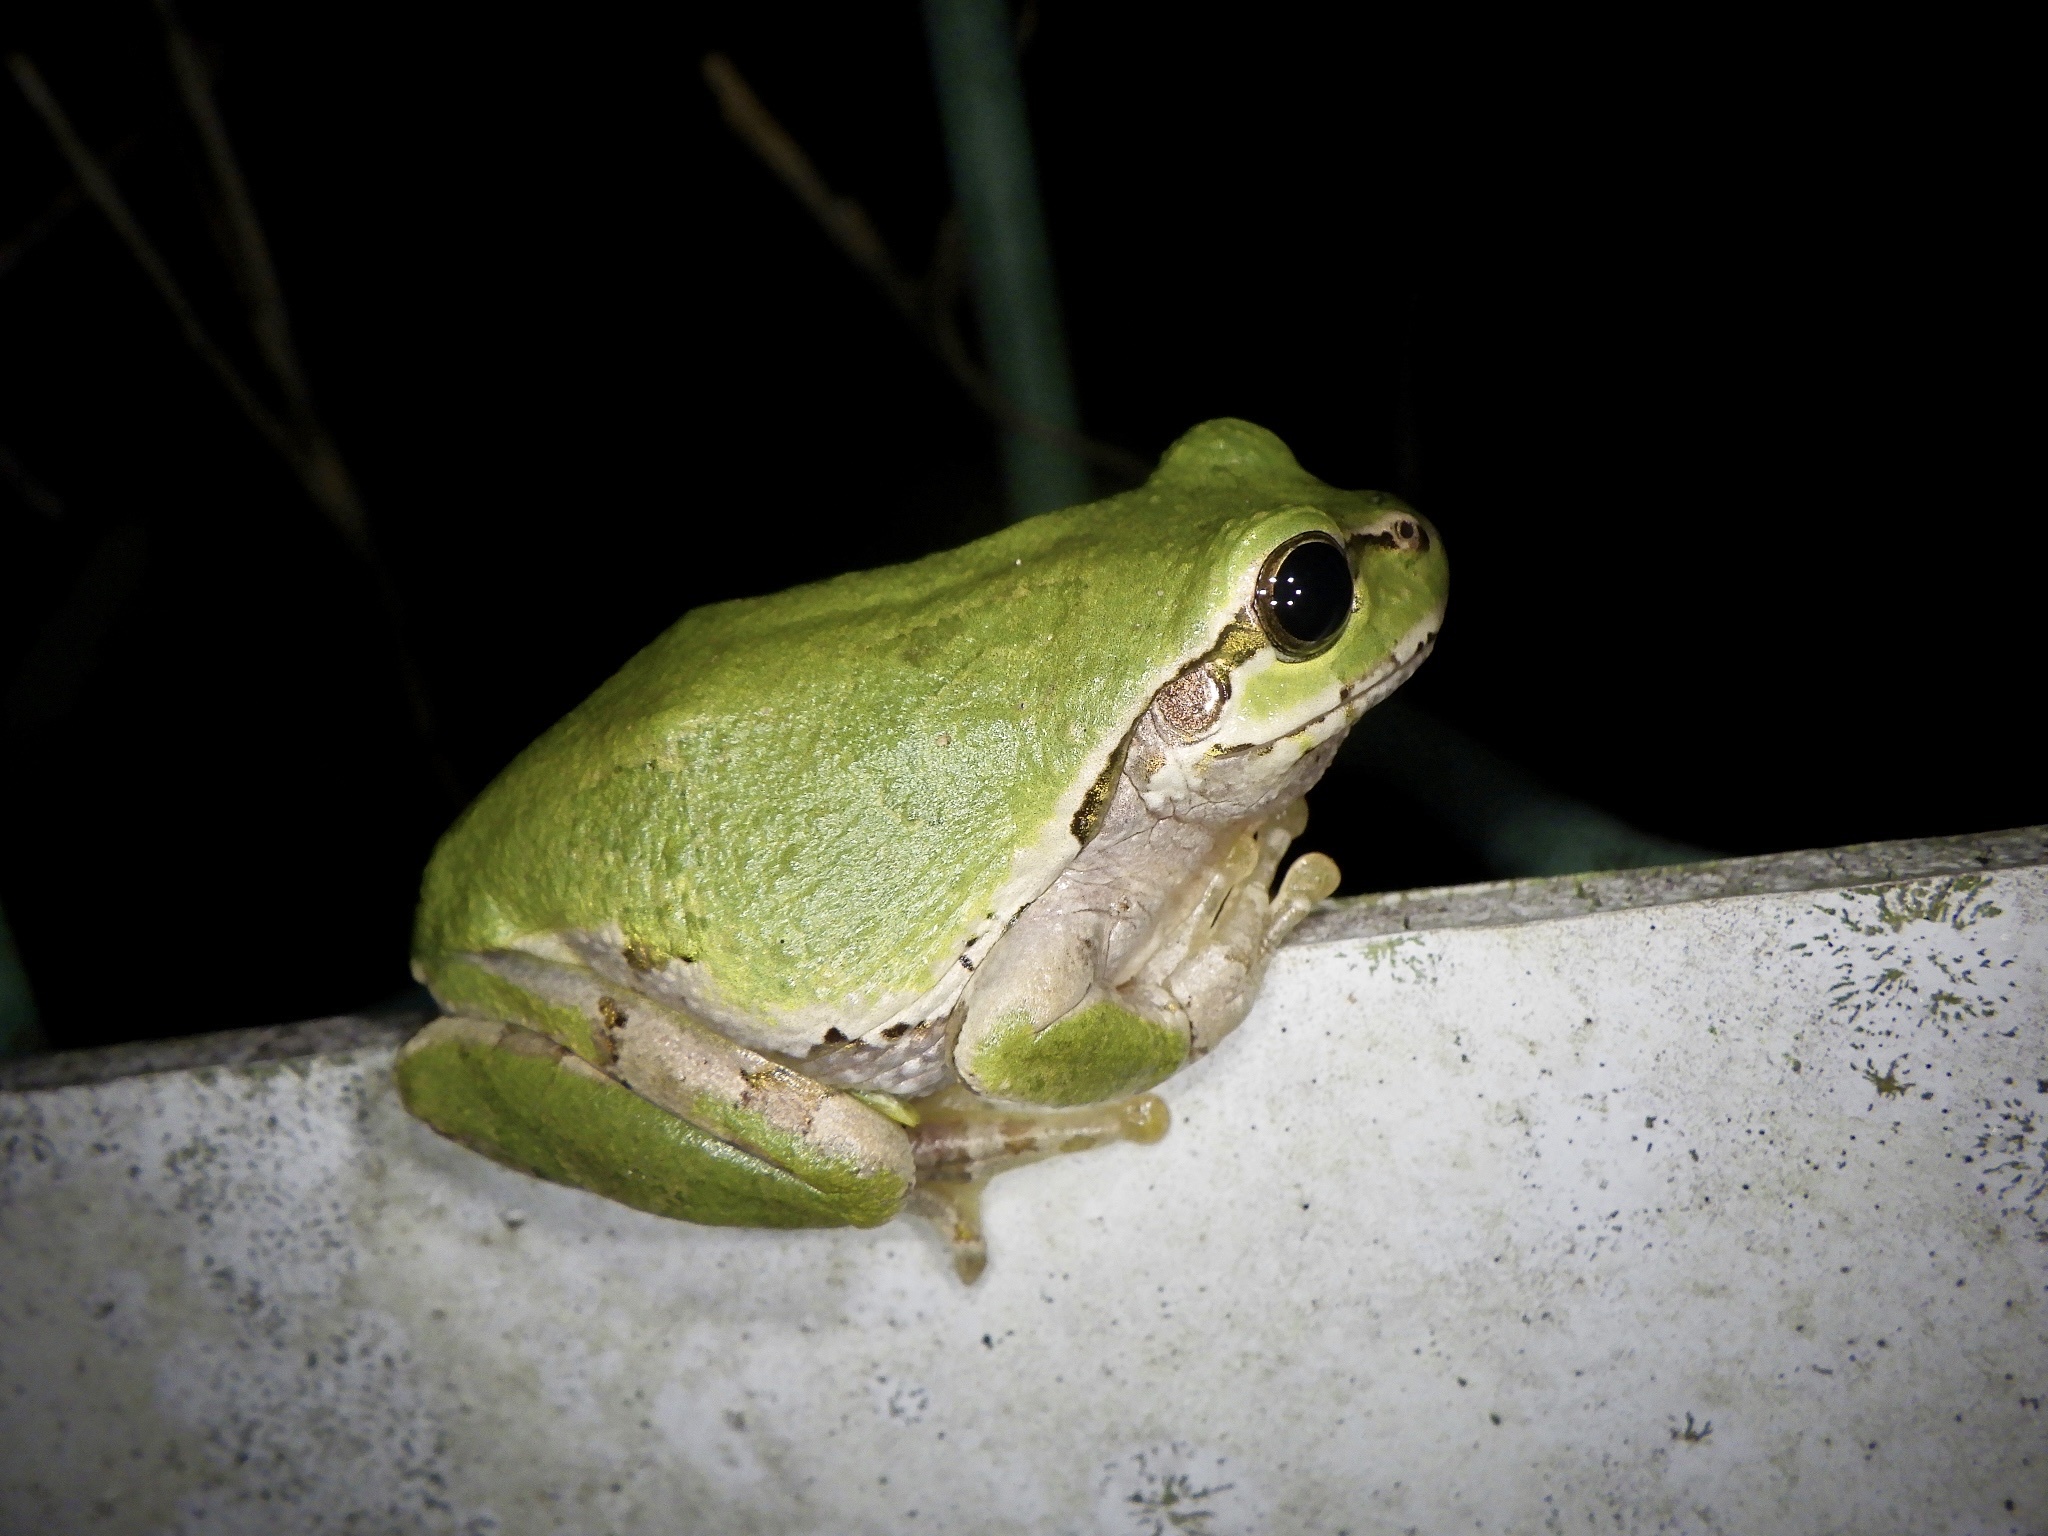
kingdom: Animalia
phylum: Chordata
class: Amphibia
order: Anura
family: Hylidae
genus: Dryophytes
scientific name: Dryophytes japonicus
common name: Japanese treefrog
